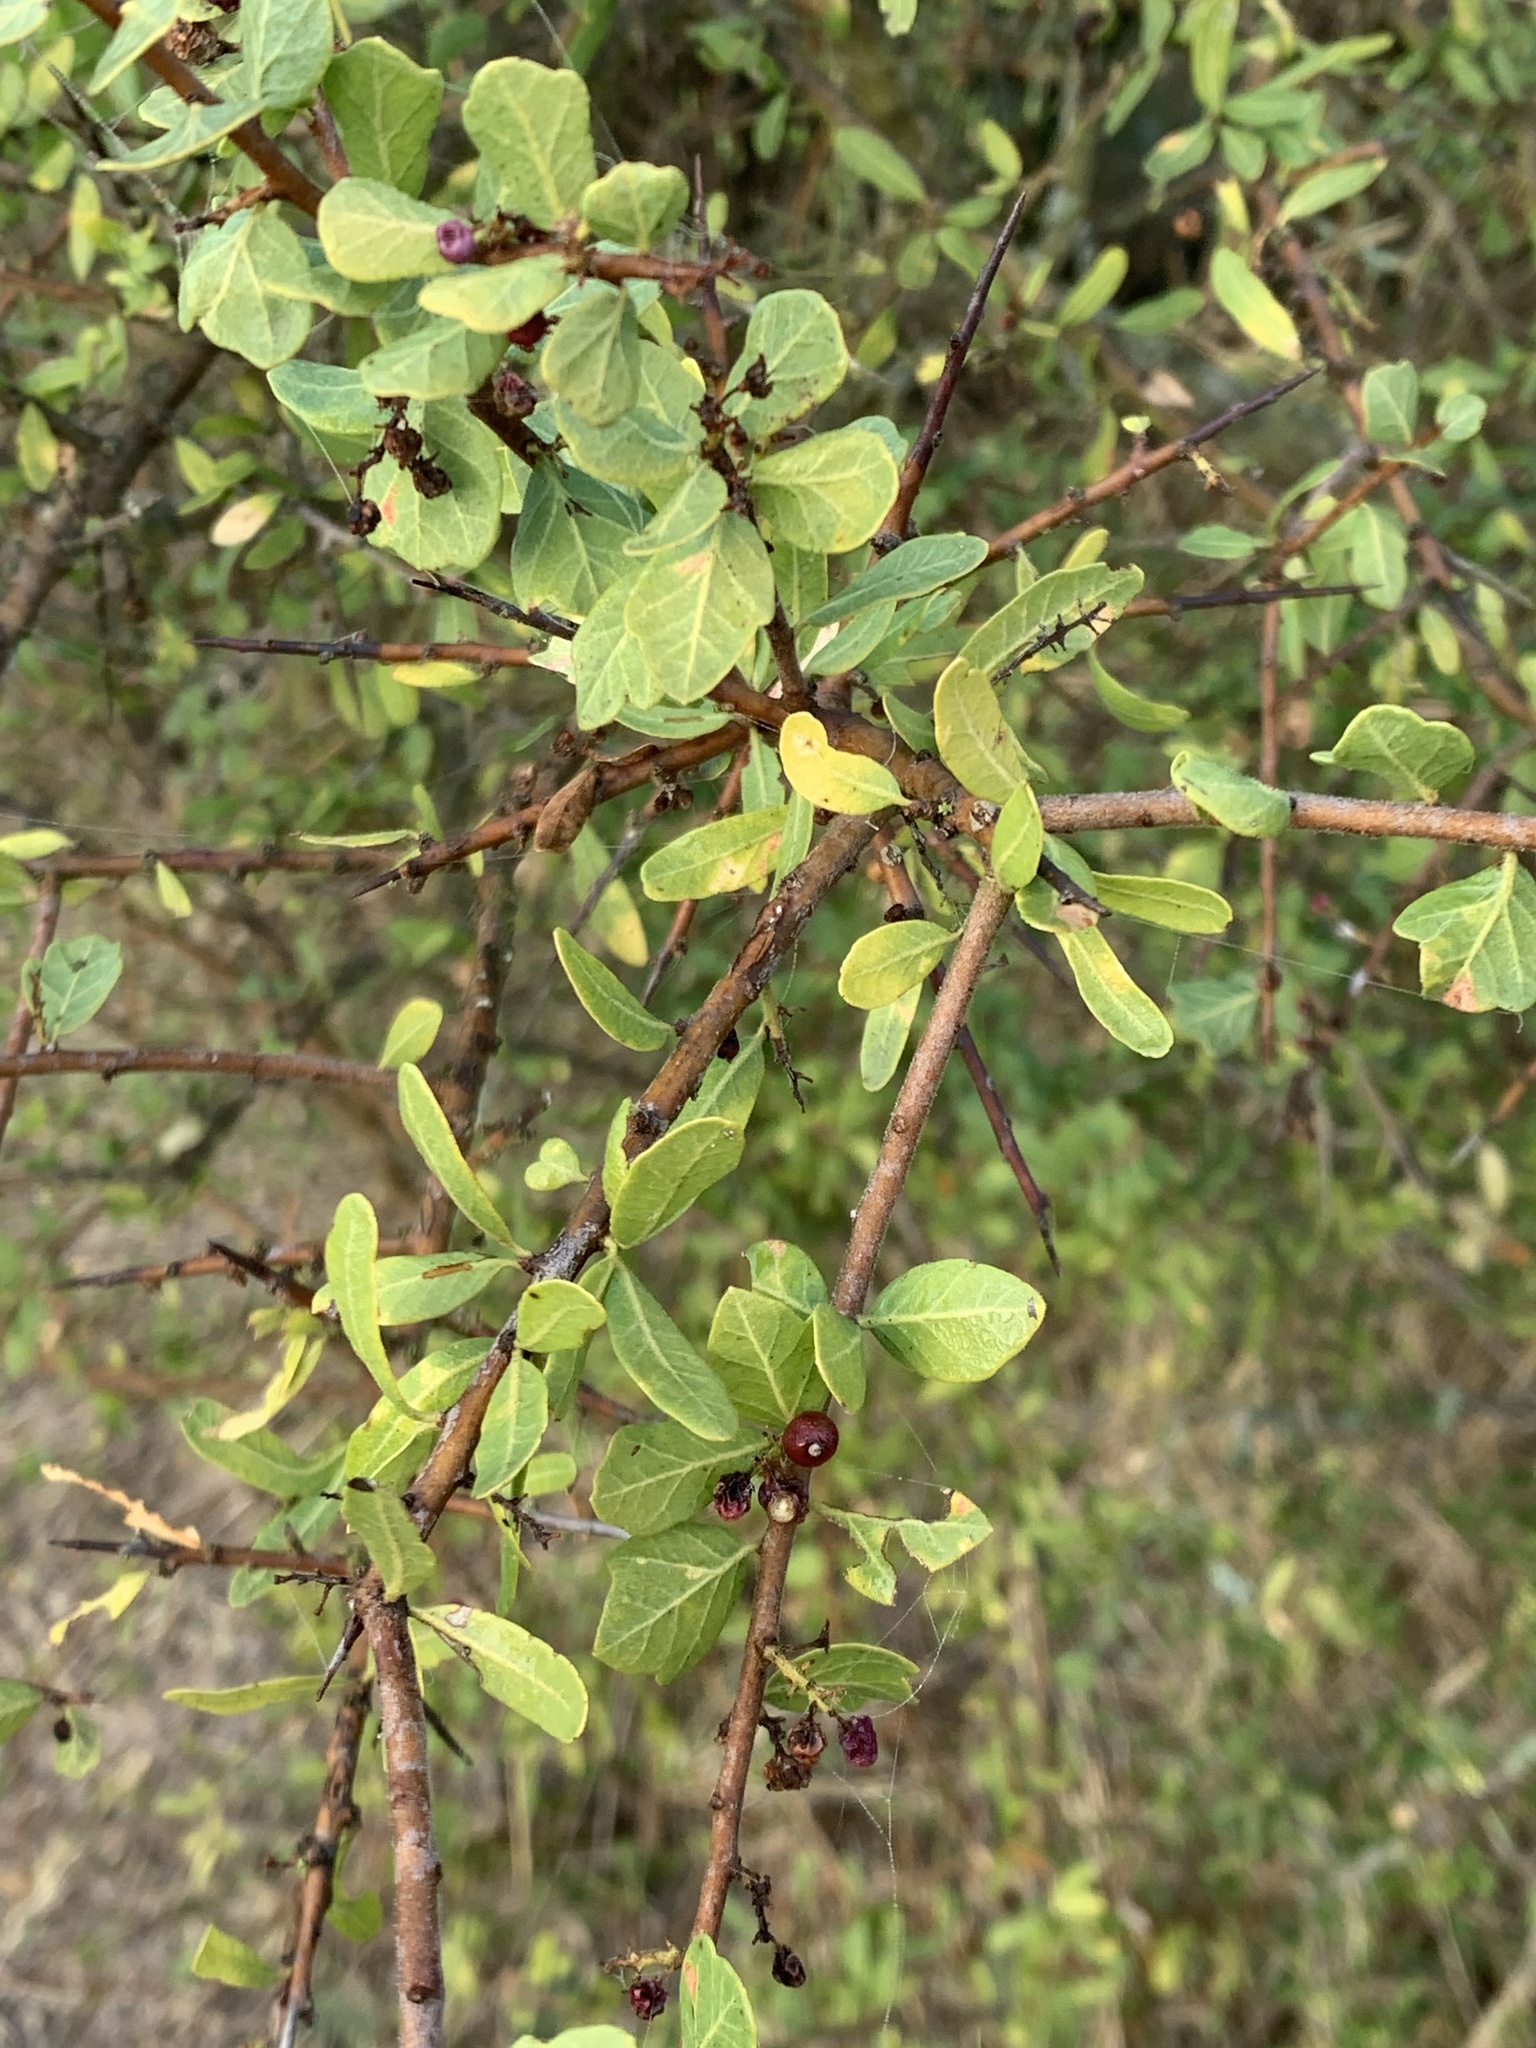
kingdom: Plantae
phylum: Tracheophyta
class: Magnoliopsida
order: Sapindales
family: Anacardiaceae
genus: Schinus
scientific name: Schinus fasciculata
